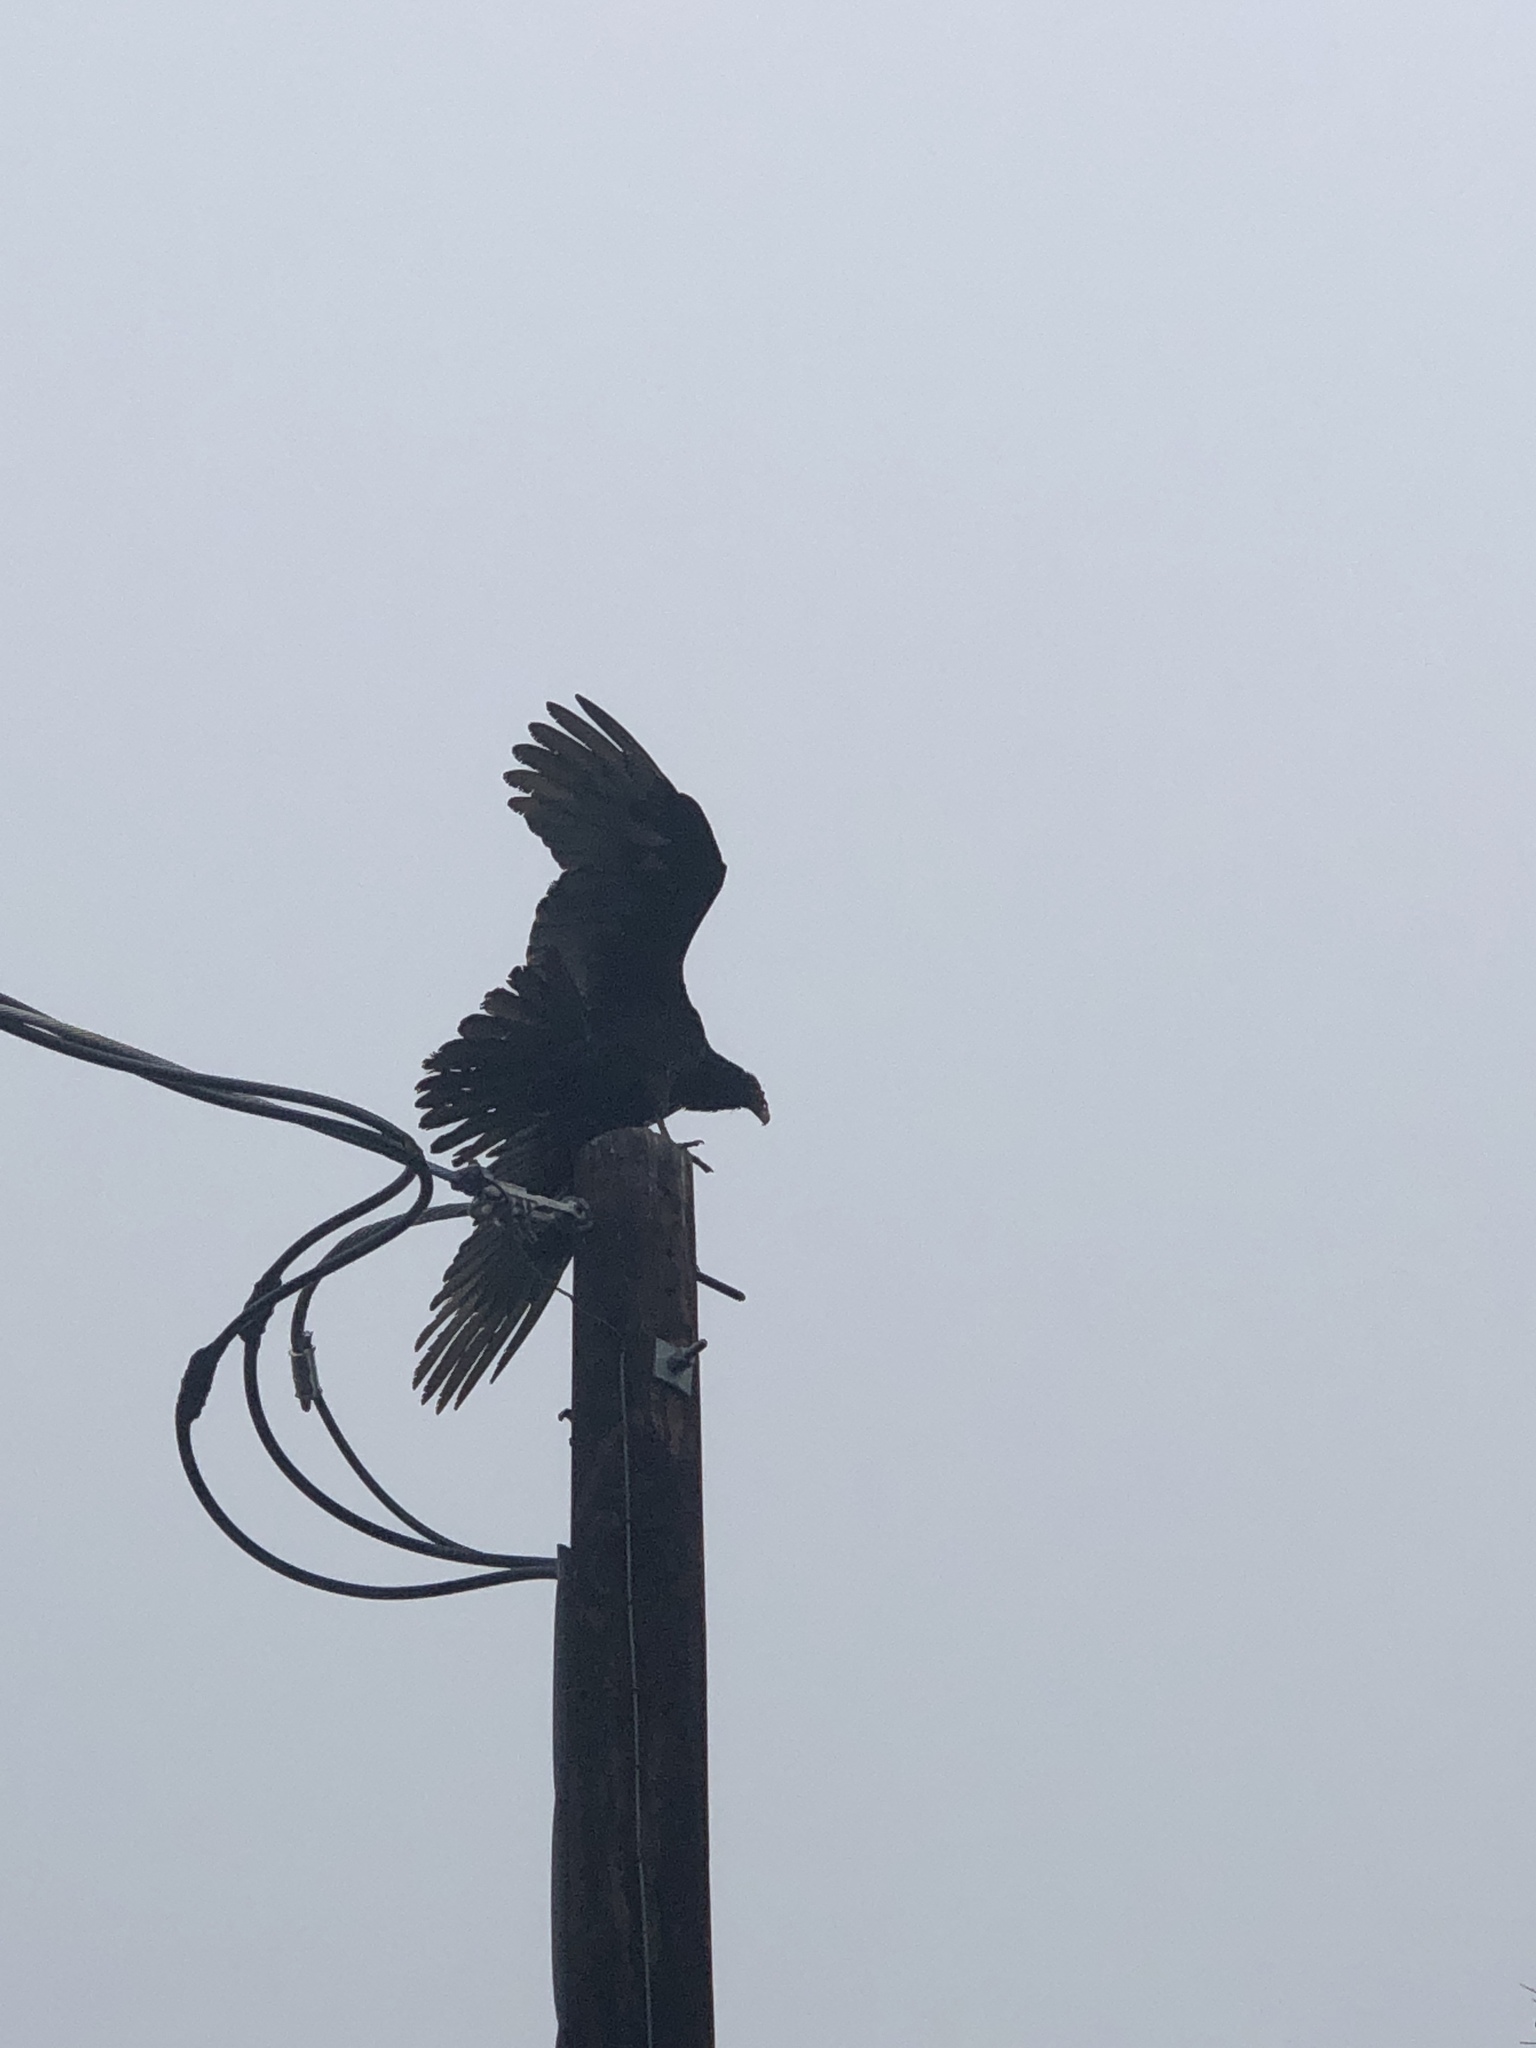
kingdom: Animalia
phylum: Chordata
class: Aves
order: Accipitriformes
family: Cathartidae
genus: Cathartes
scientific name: Cathartes aura
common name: Turkey vulture
